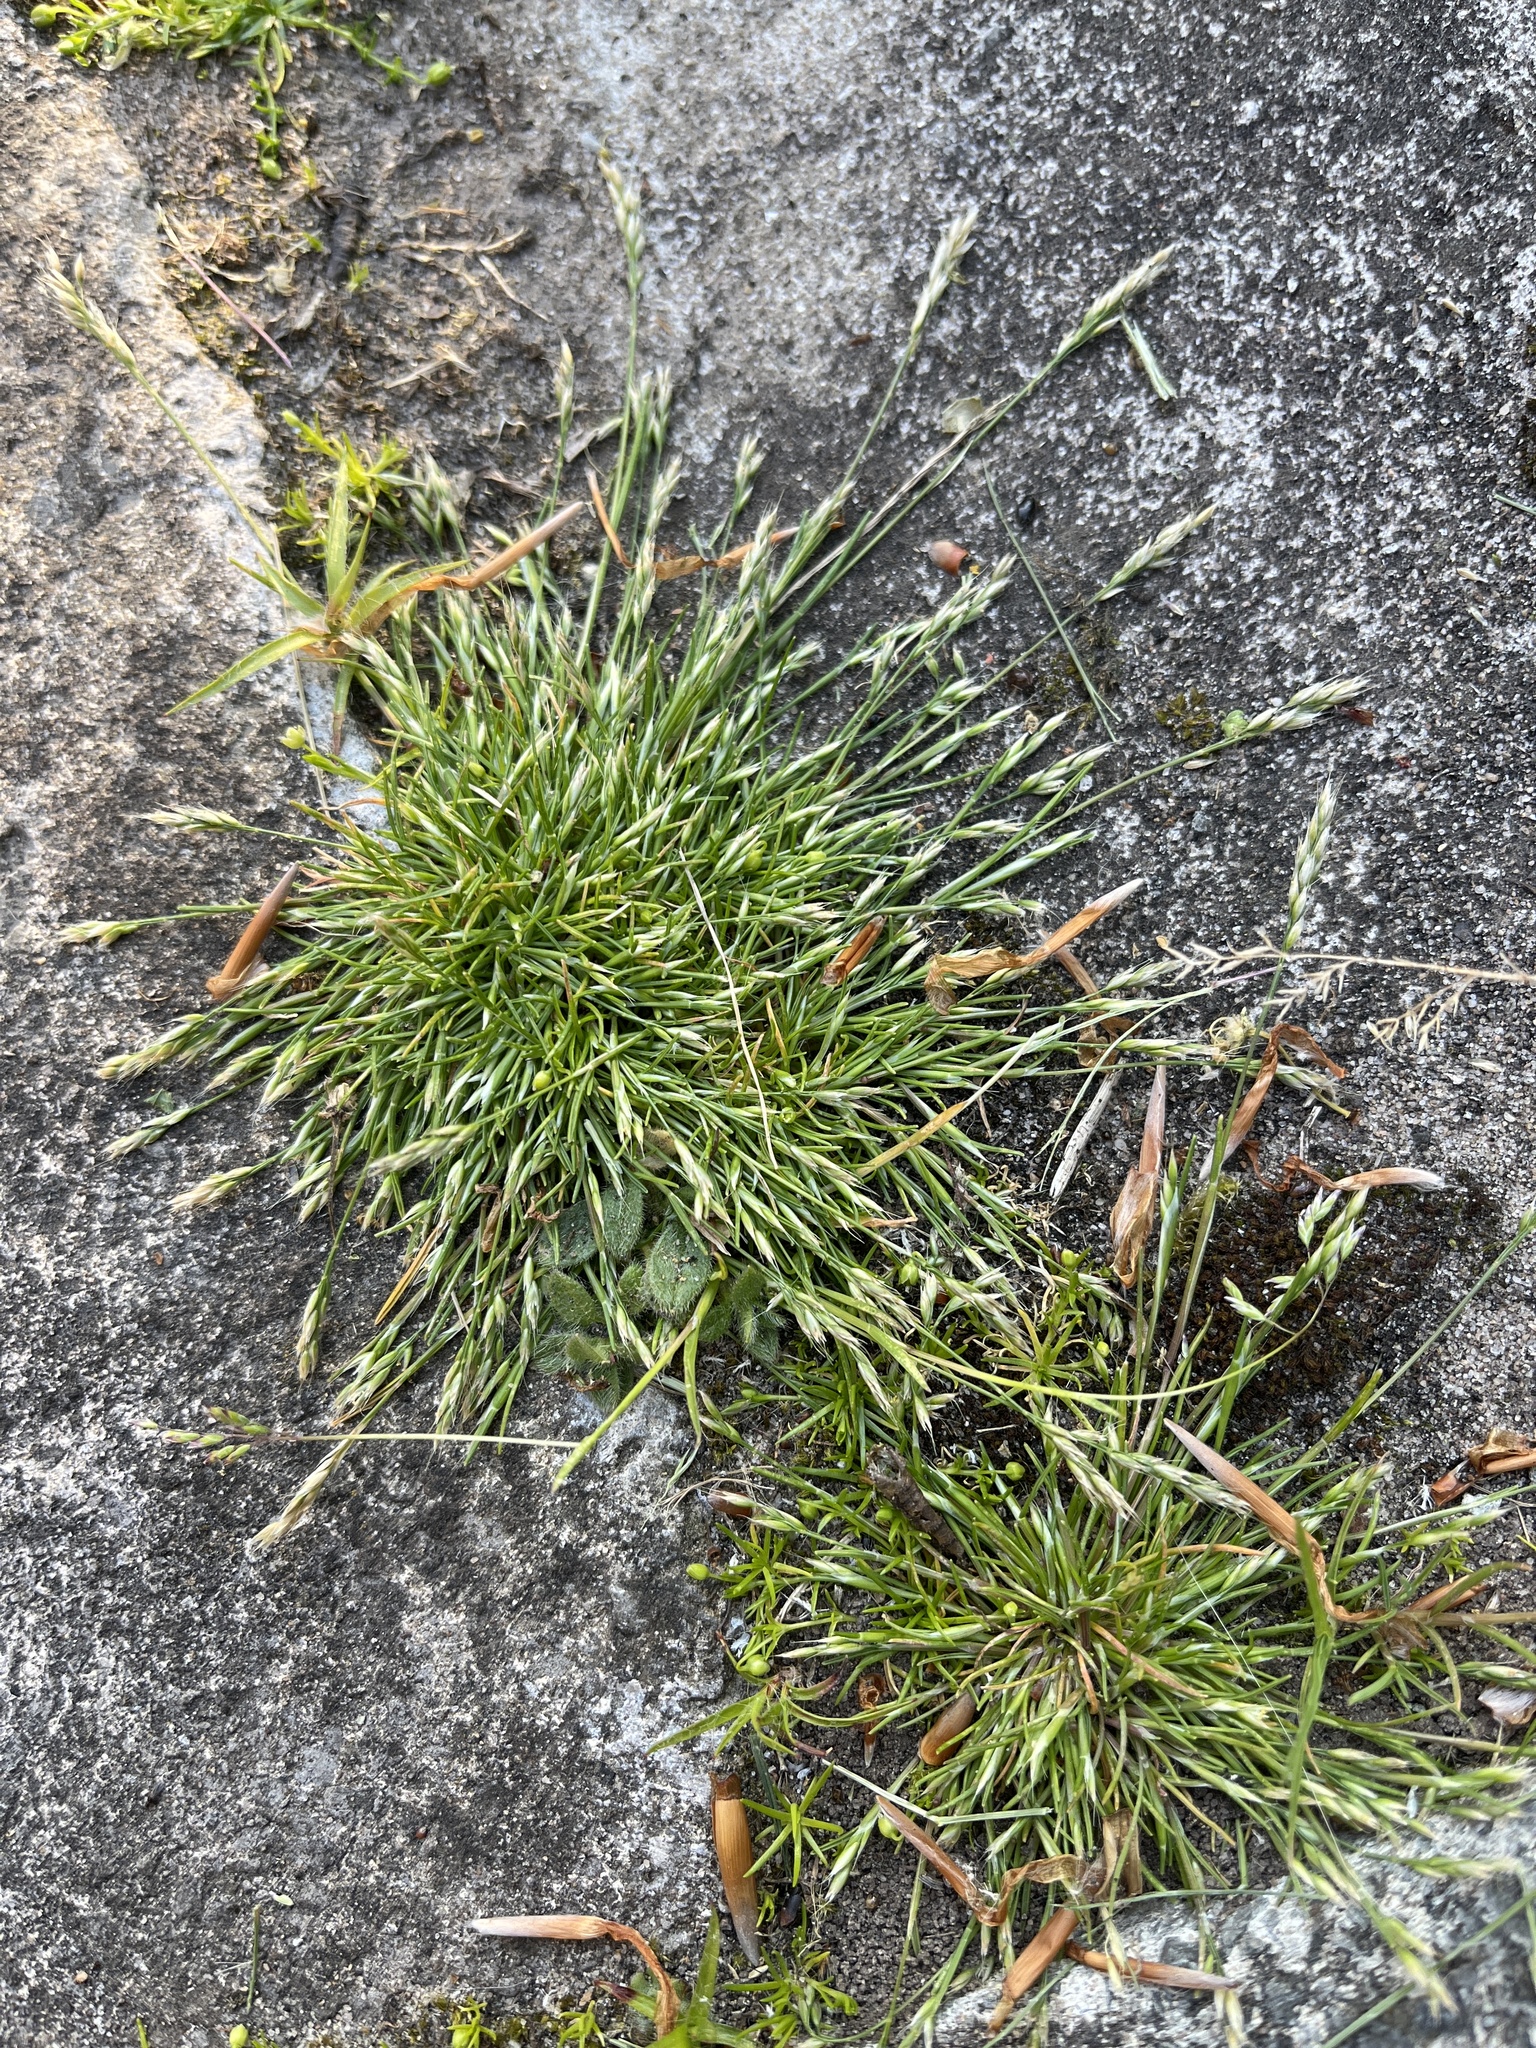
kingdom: Plantae
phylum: Tracheophyta
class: Liliopsida
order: Poales
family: Poaceae
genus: Aira
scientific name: Aira praecox
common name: Early hair-grass
